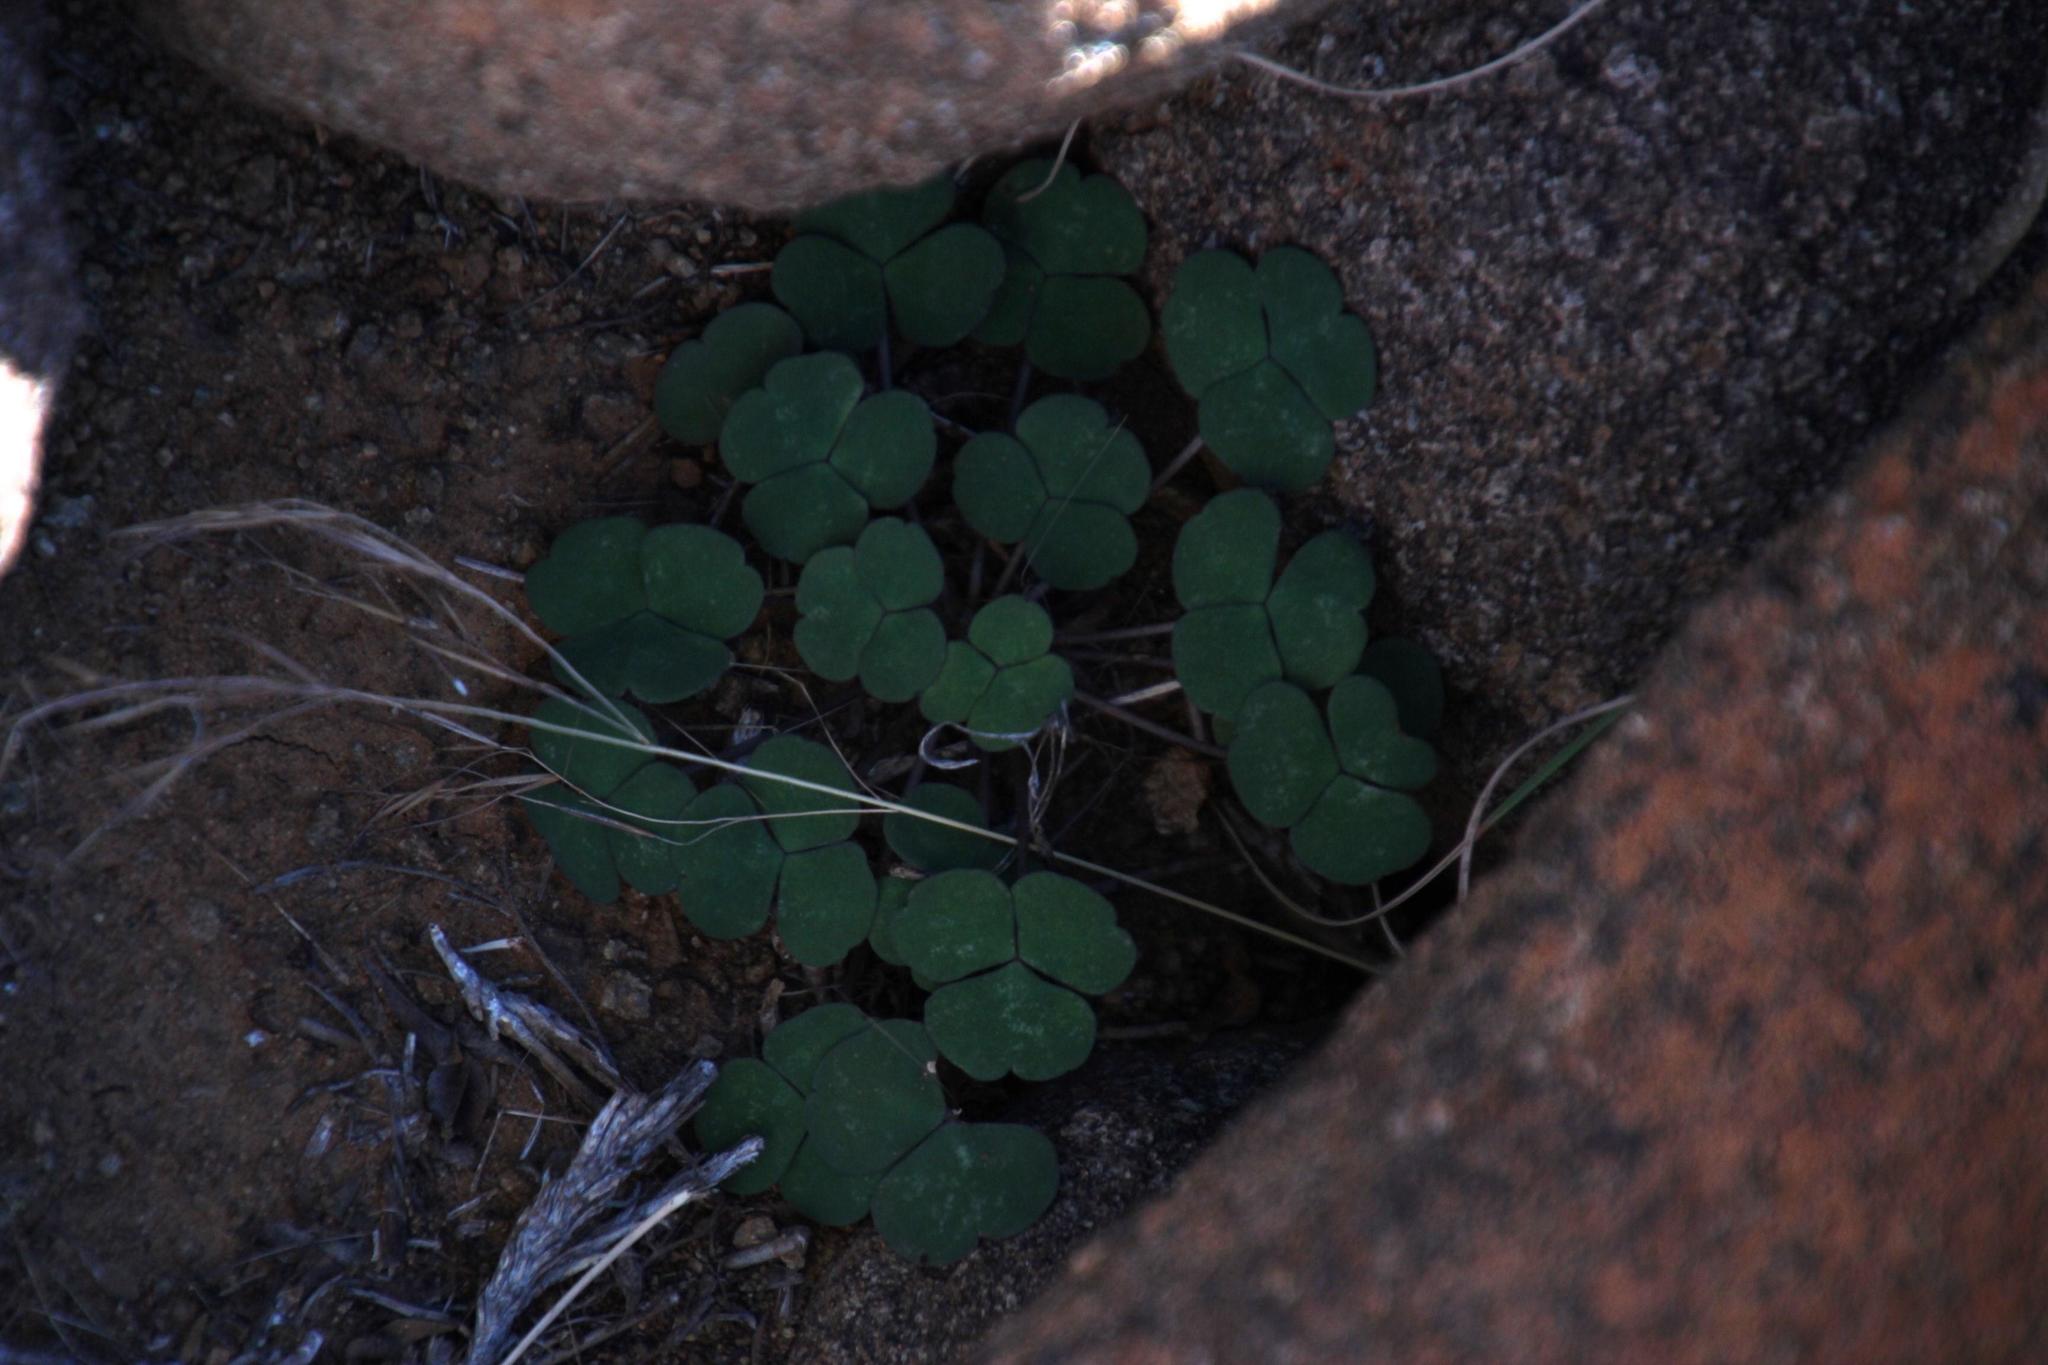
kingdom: Plantae
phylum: Tracheophyta
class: Magnoliopsida
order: Oxalidales
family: Oxalidaceae
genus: Oxalis
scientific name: Oxalis depressa
